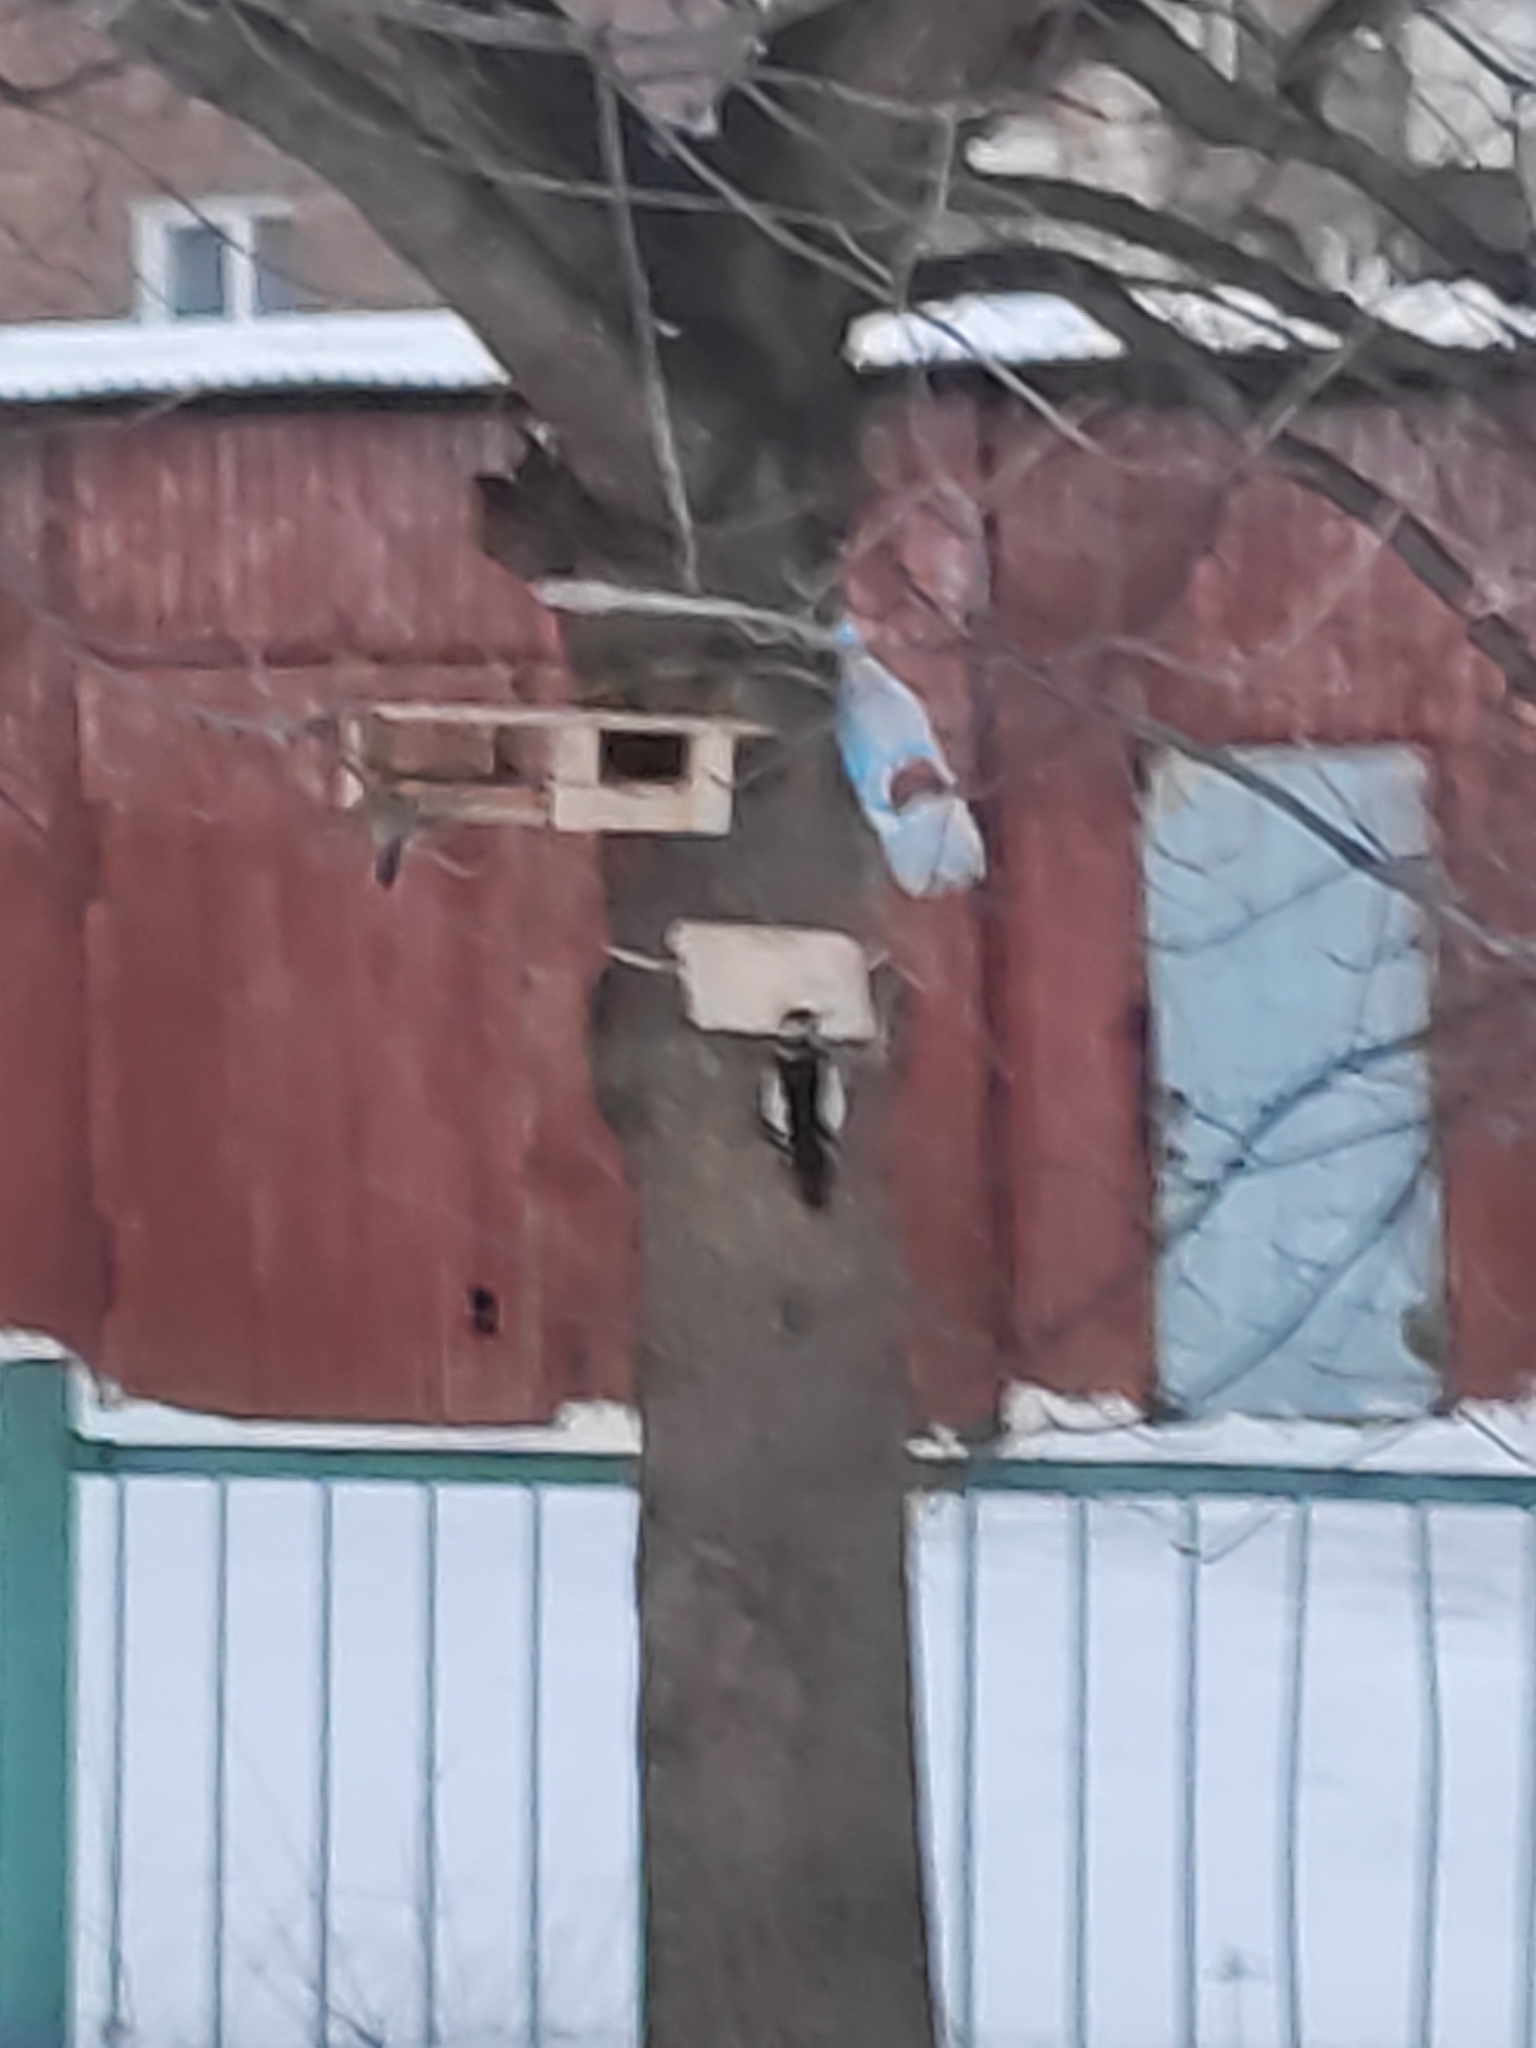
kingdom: Animalia
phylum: Chordata
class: Aves
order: Piciformes
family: Picidae
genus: Dendrocopos
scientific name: Dendrocopos major
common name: Great spotted woodpecker
